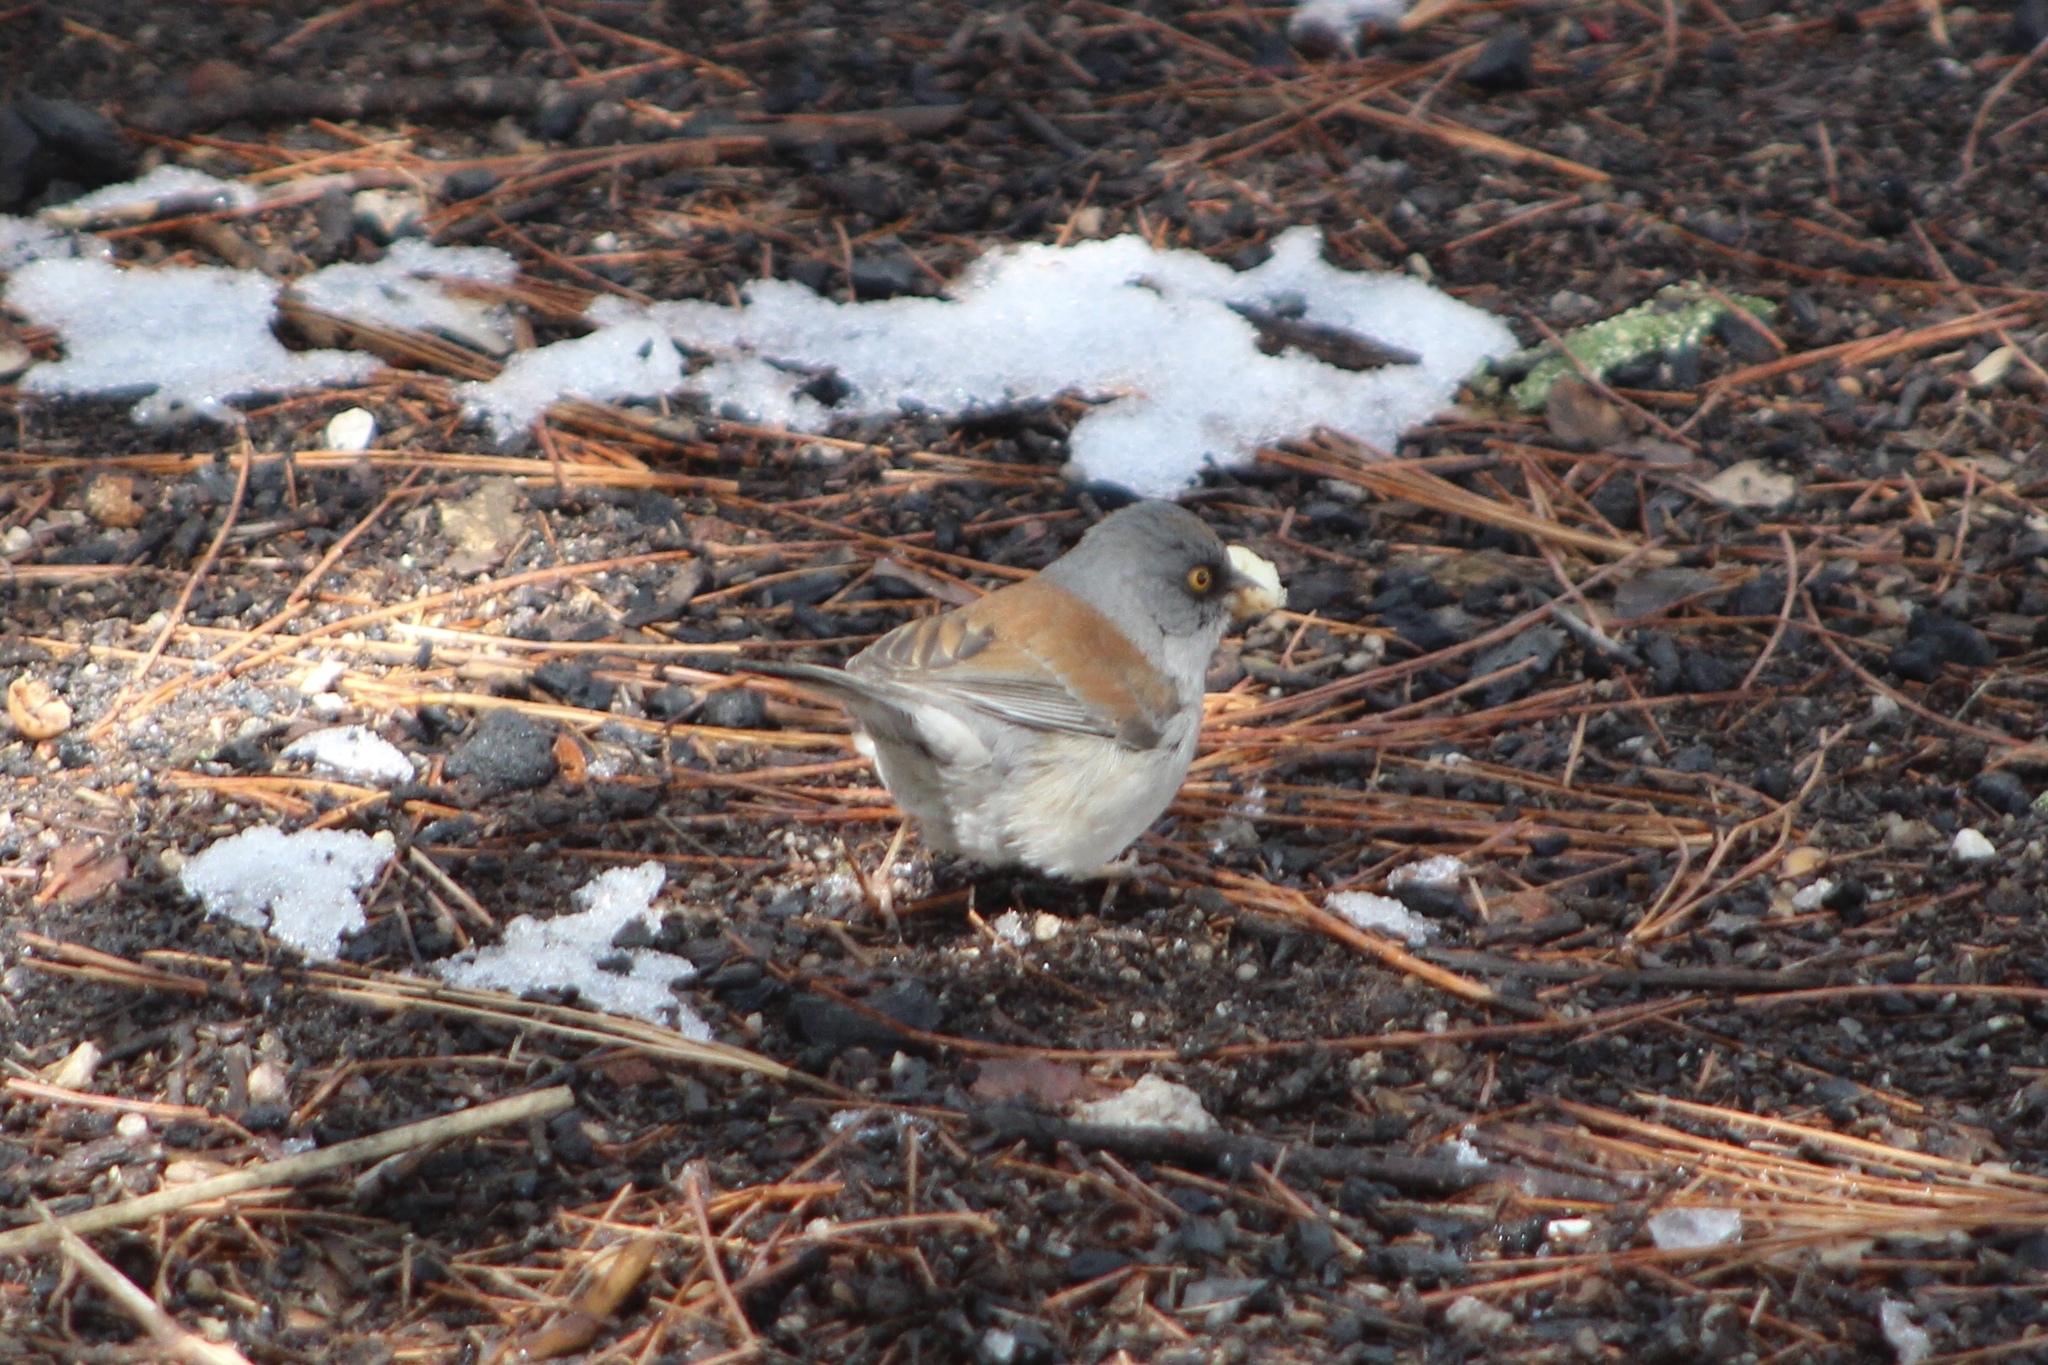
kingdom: Animalia
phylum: Chordata
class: Aves
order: Passeriformes
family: Passerellidae
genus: Junco
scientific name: Junco phaeonotus
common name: Yellow-eyed junco
